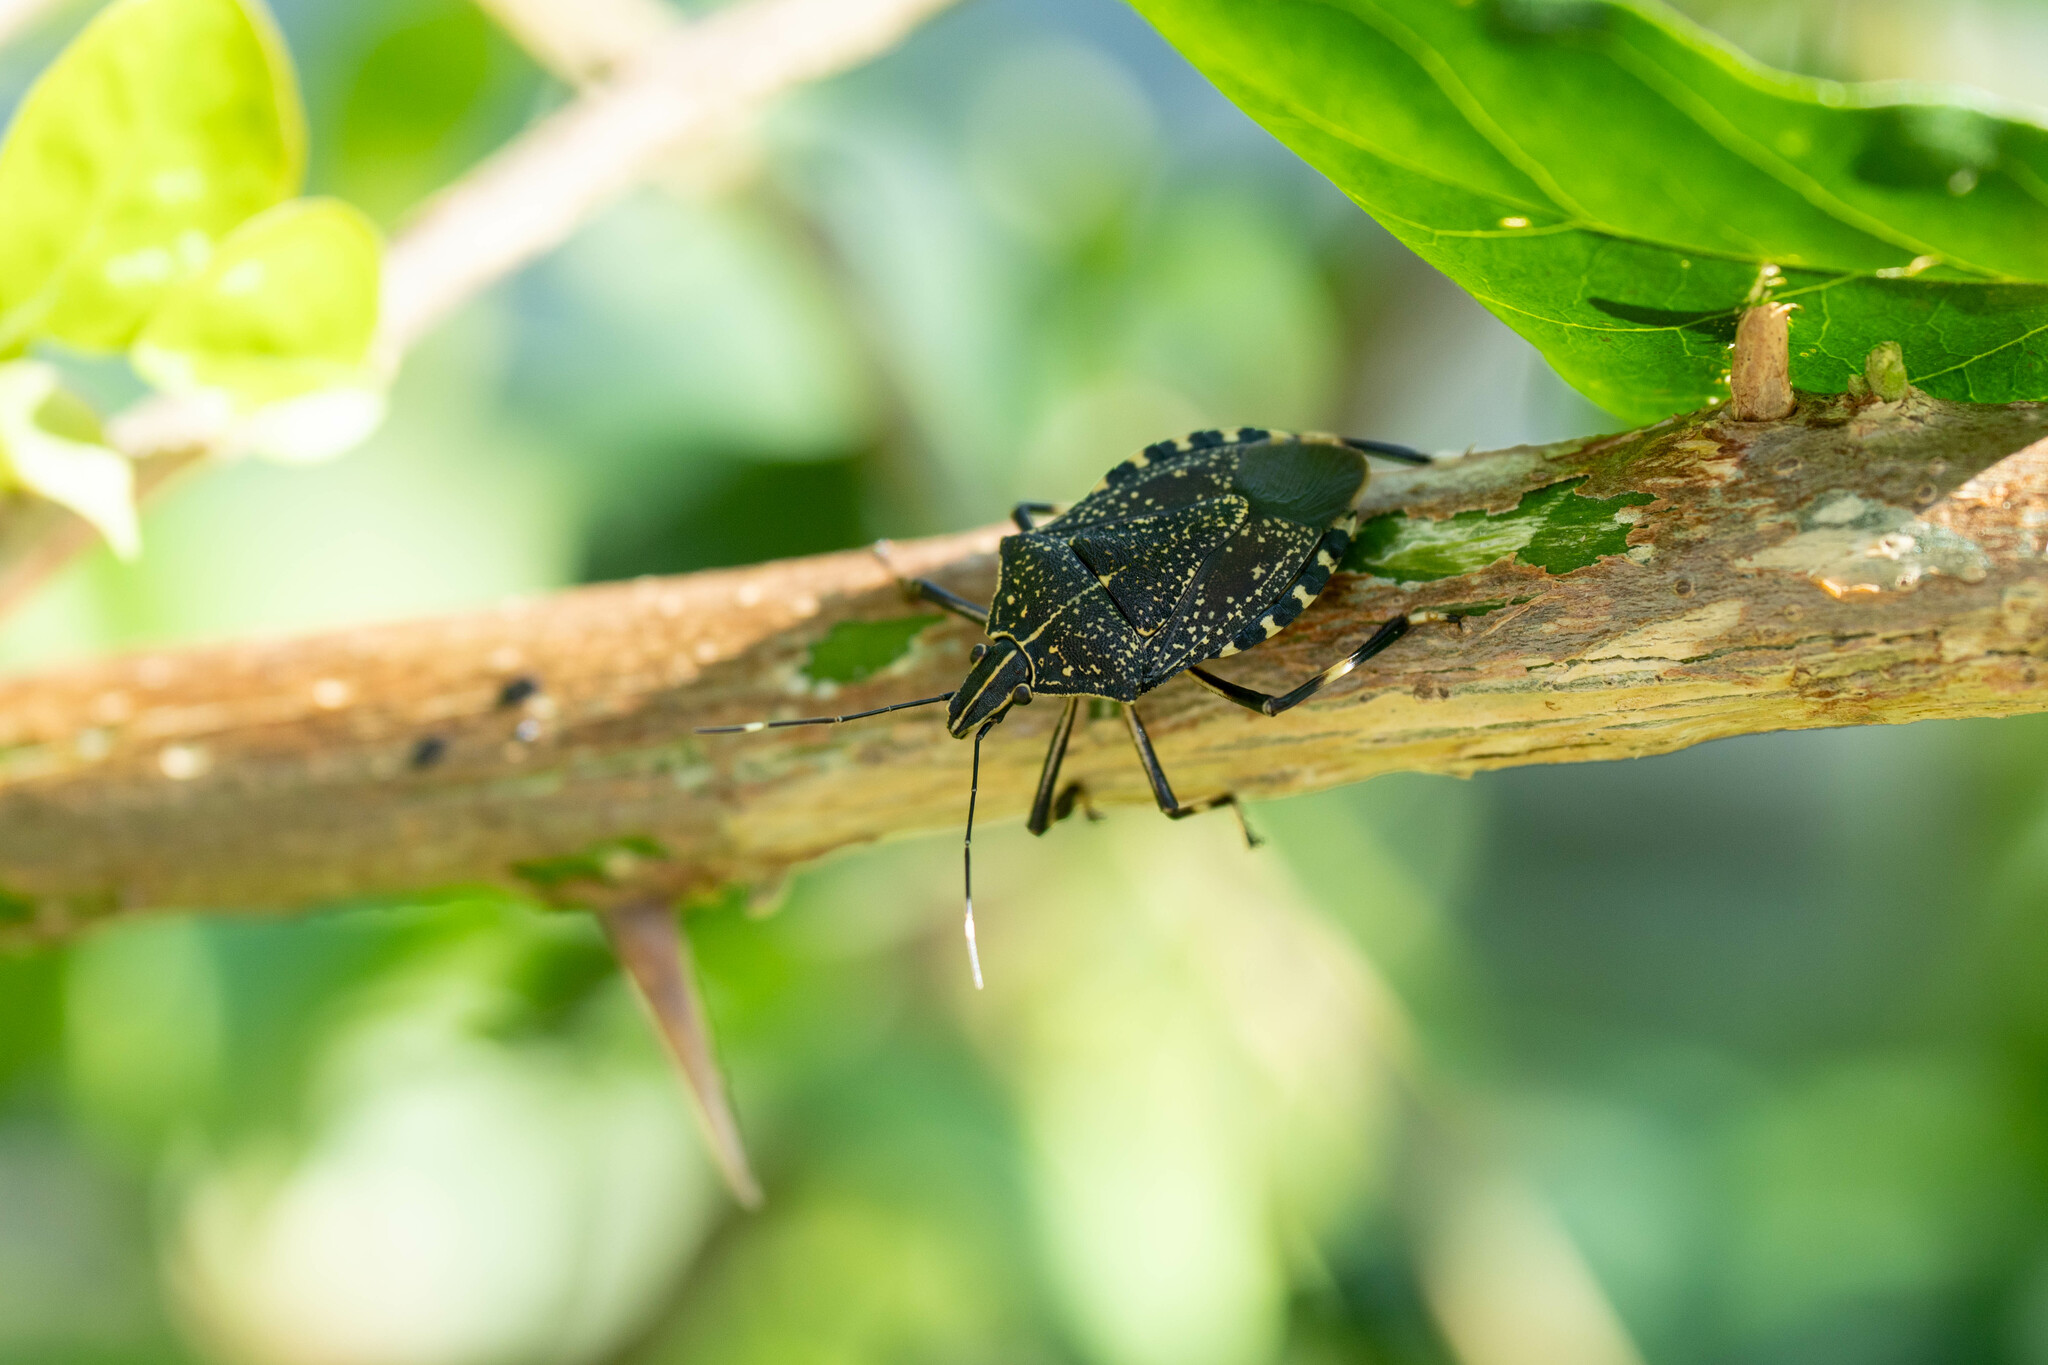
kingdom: Animalia
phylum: Arthropoda
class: Insecta
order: Hemiptera
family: Pentatomidae
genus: Erthesina
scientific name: Erthesina fullo
